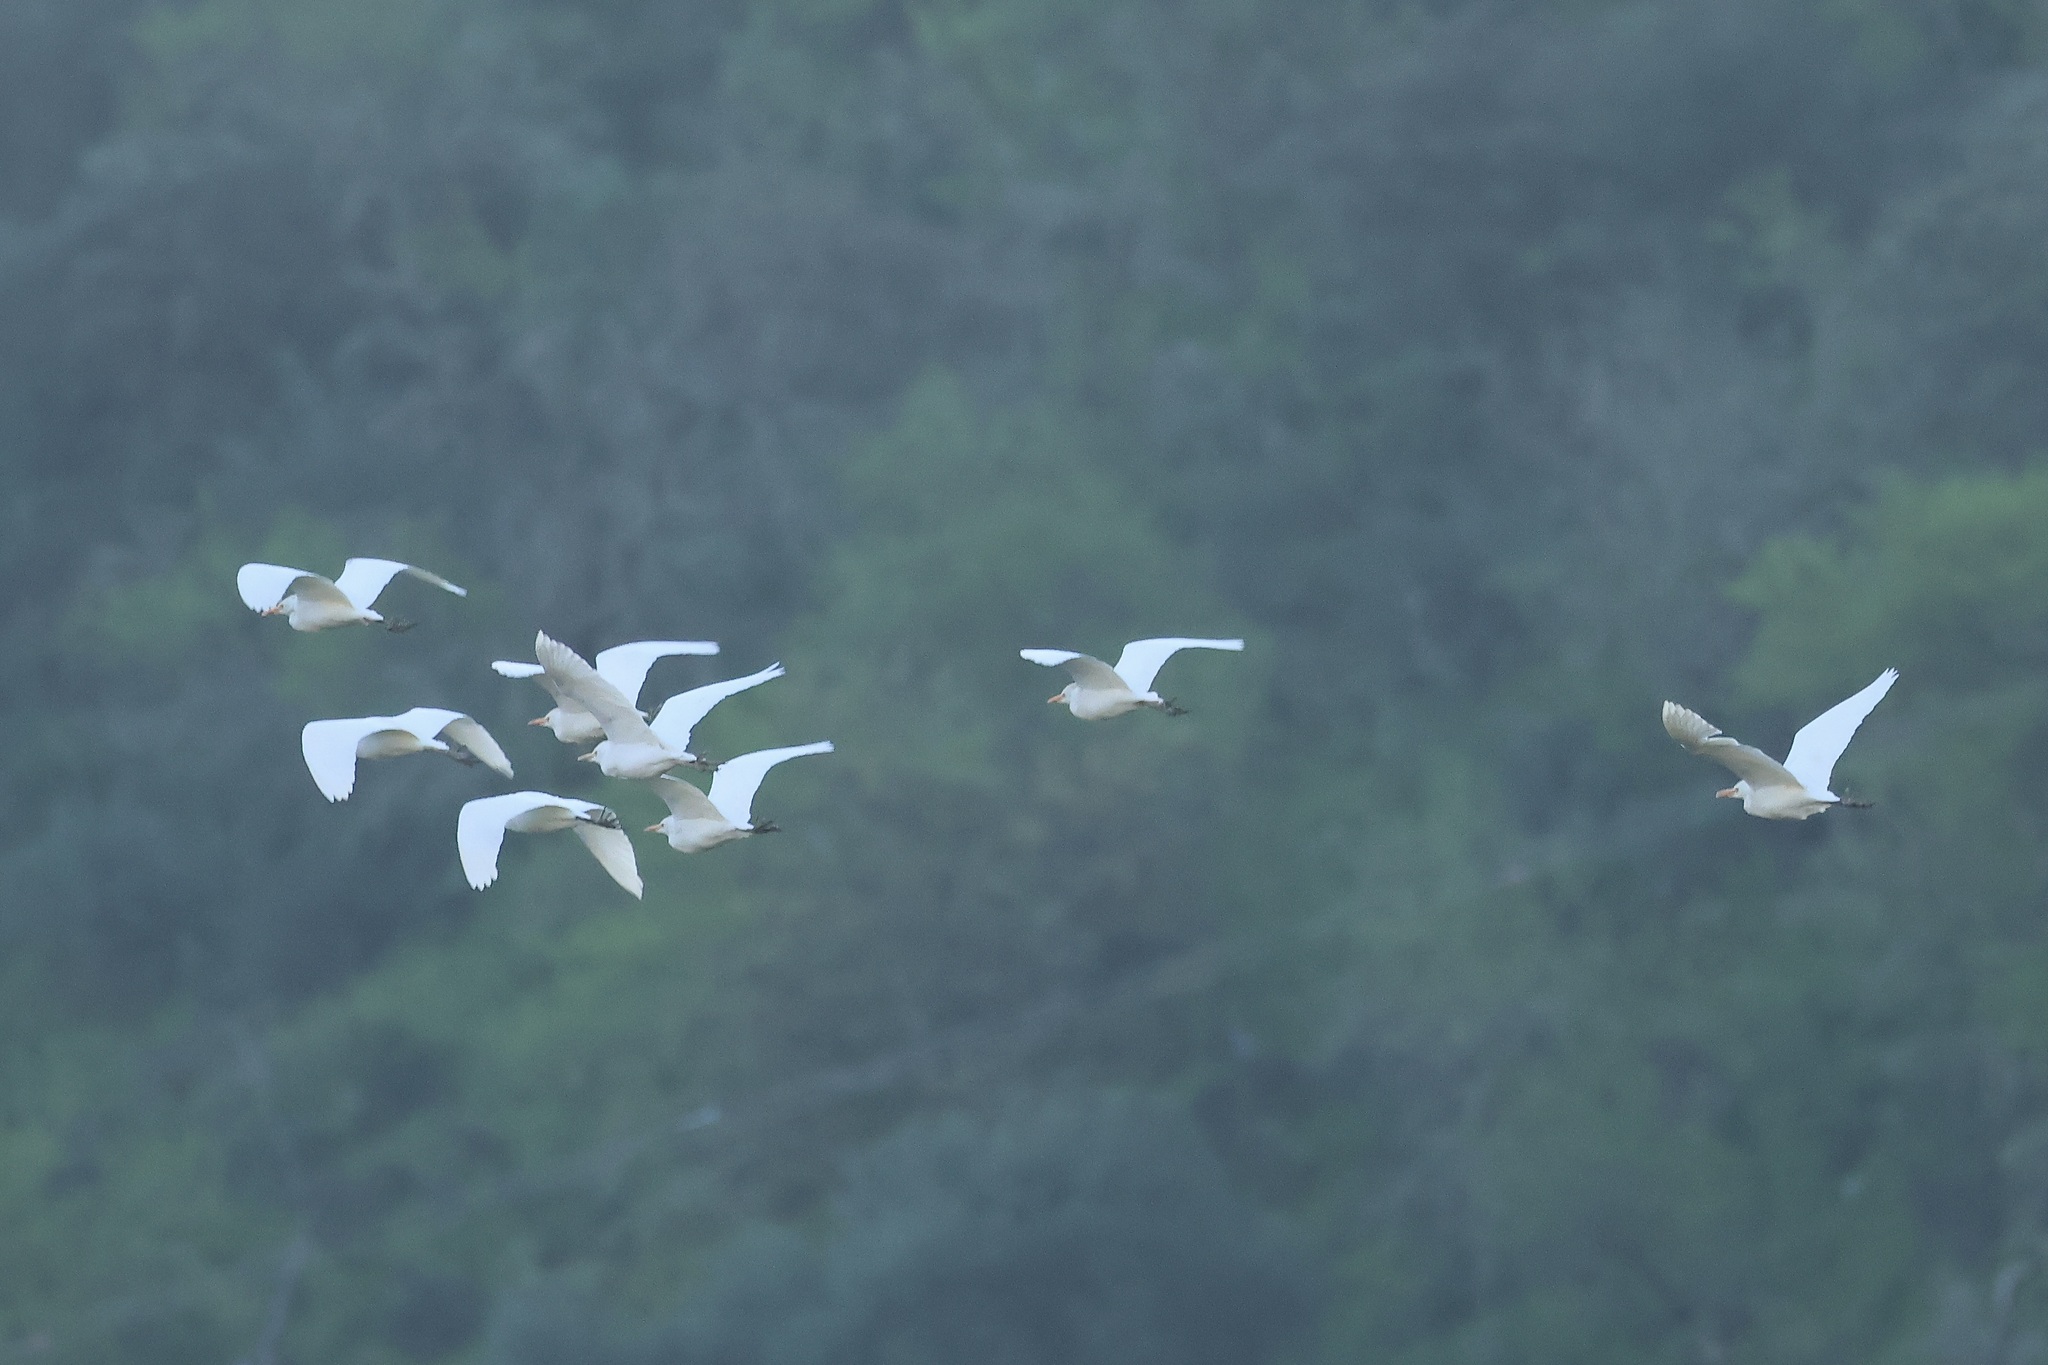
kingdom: Animalia
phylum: Chordata
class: Aves
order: Pelecaniformes
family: Ardeidae
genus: Bubulcus
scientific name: Bubulcus ibis
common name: Cattle egret
